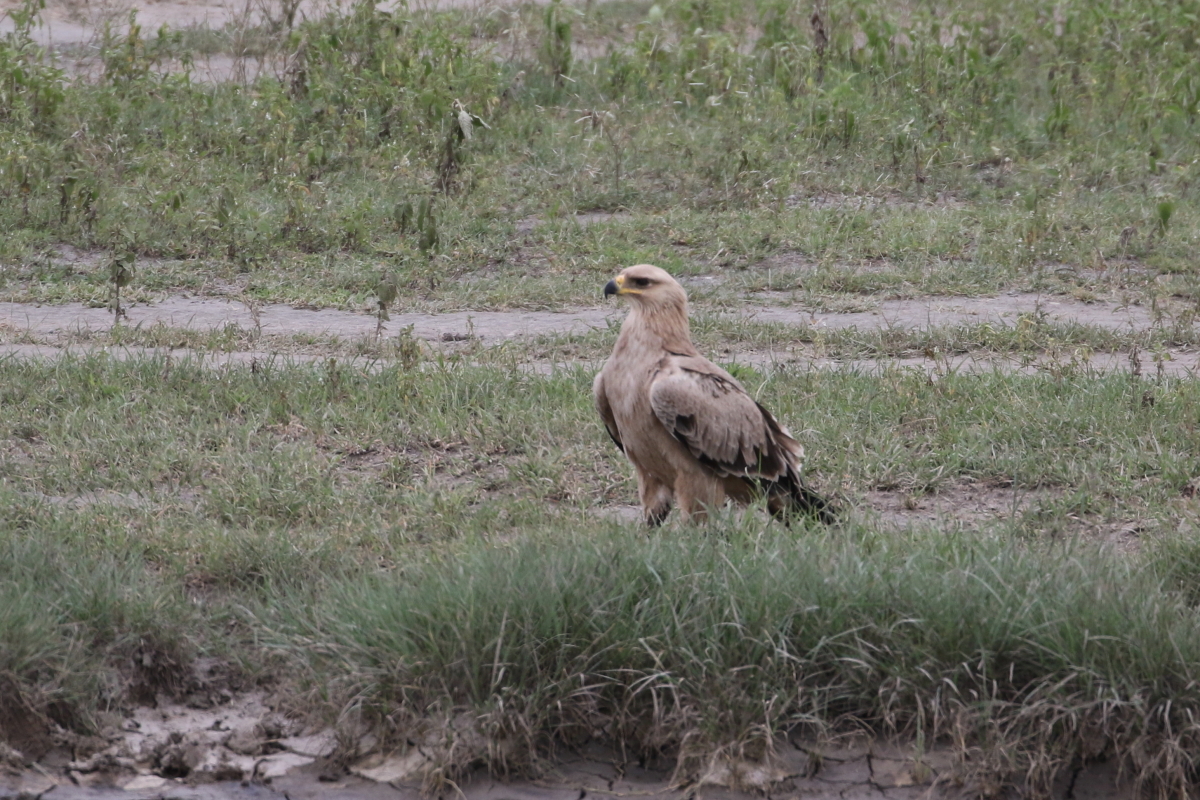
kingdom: Animalia
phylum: Chordata
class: Aves
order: Accipitriformes
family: Accipitridae
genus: Aquila
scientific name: Aquila rapax
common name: Tawny eagle
